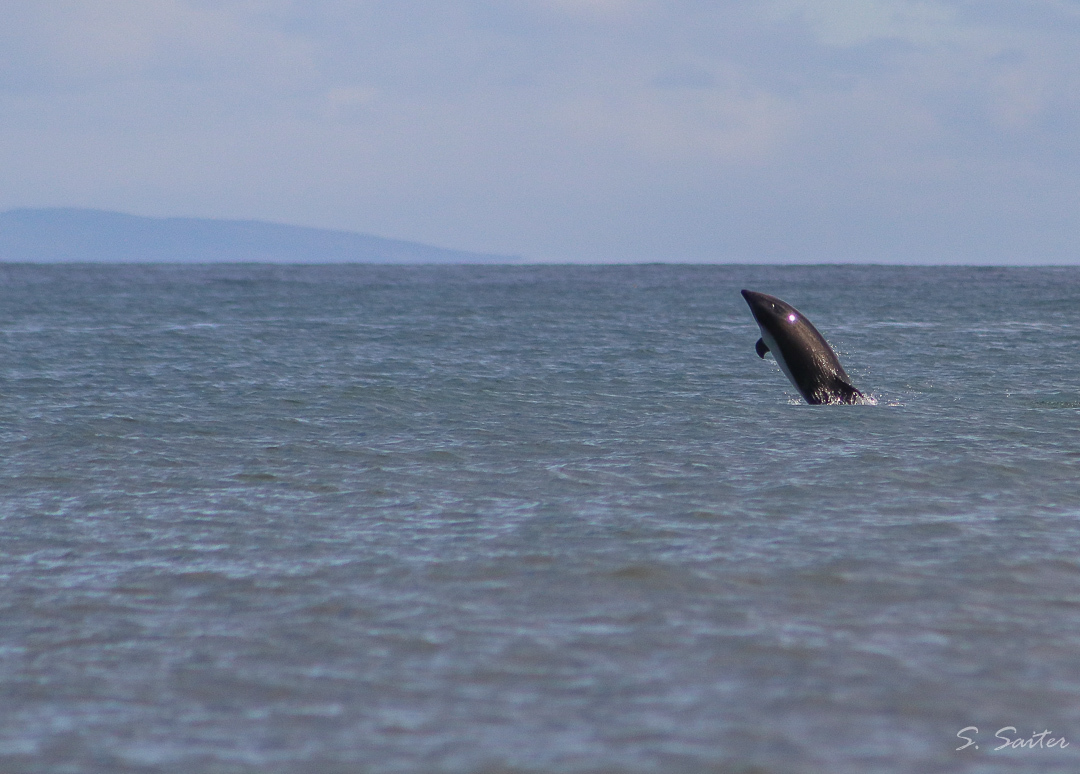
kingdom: Animalia
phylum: Chordata
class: Mammalia
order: Cetacea
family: Delphinidae
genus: Lagenorhynchus
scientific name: Lagenorhynchus australis
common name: Peale's dolphin
